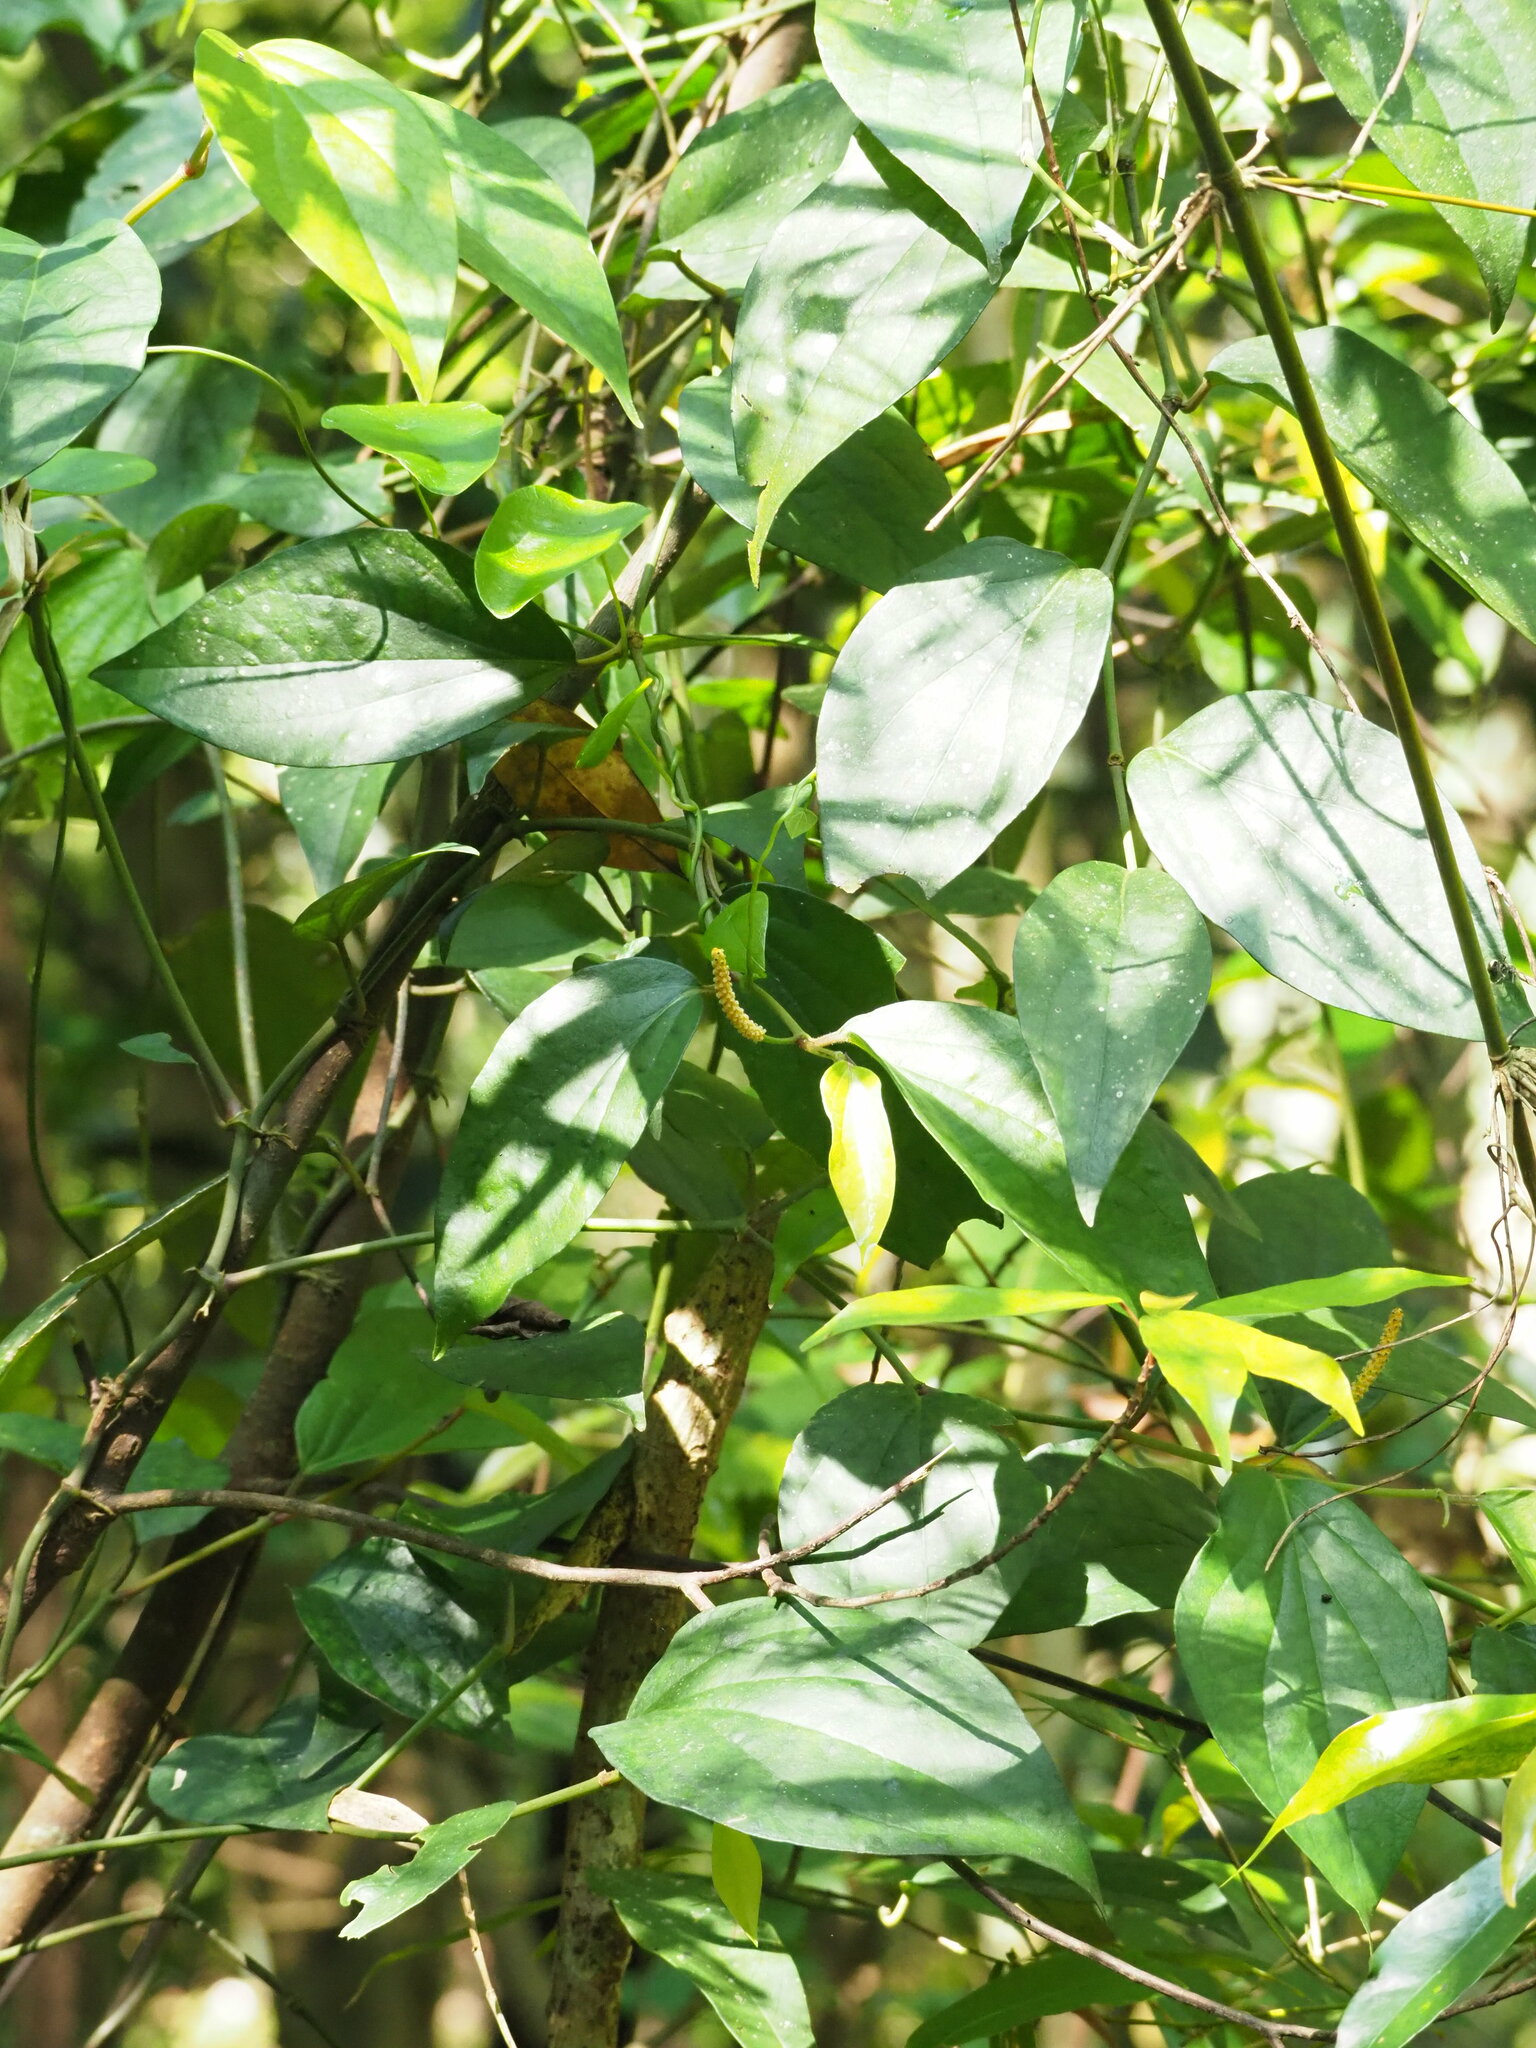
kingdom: Plantae
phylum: Tracheophyta
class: Magnoliopsida
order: Piperales
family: Piperaceae
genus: Piper
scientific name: Piper kadsura
